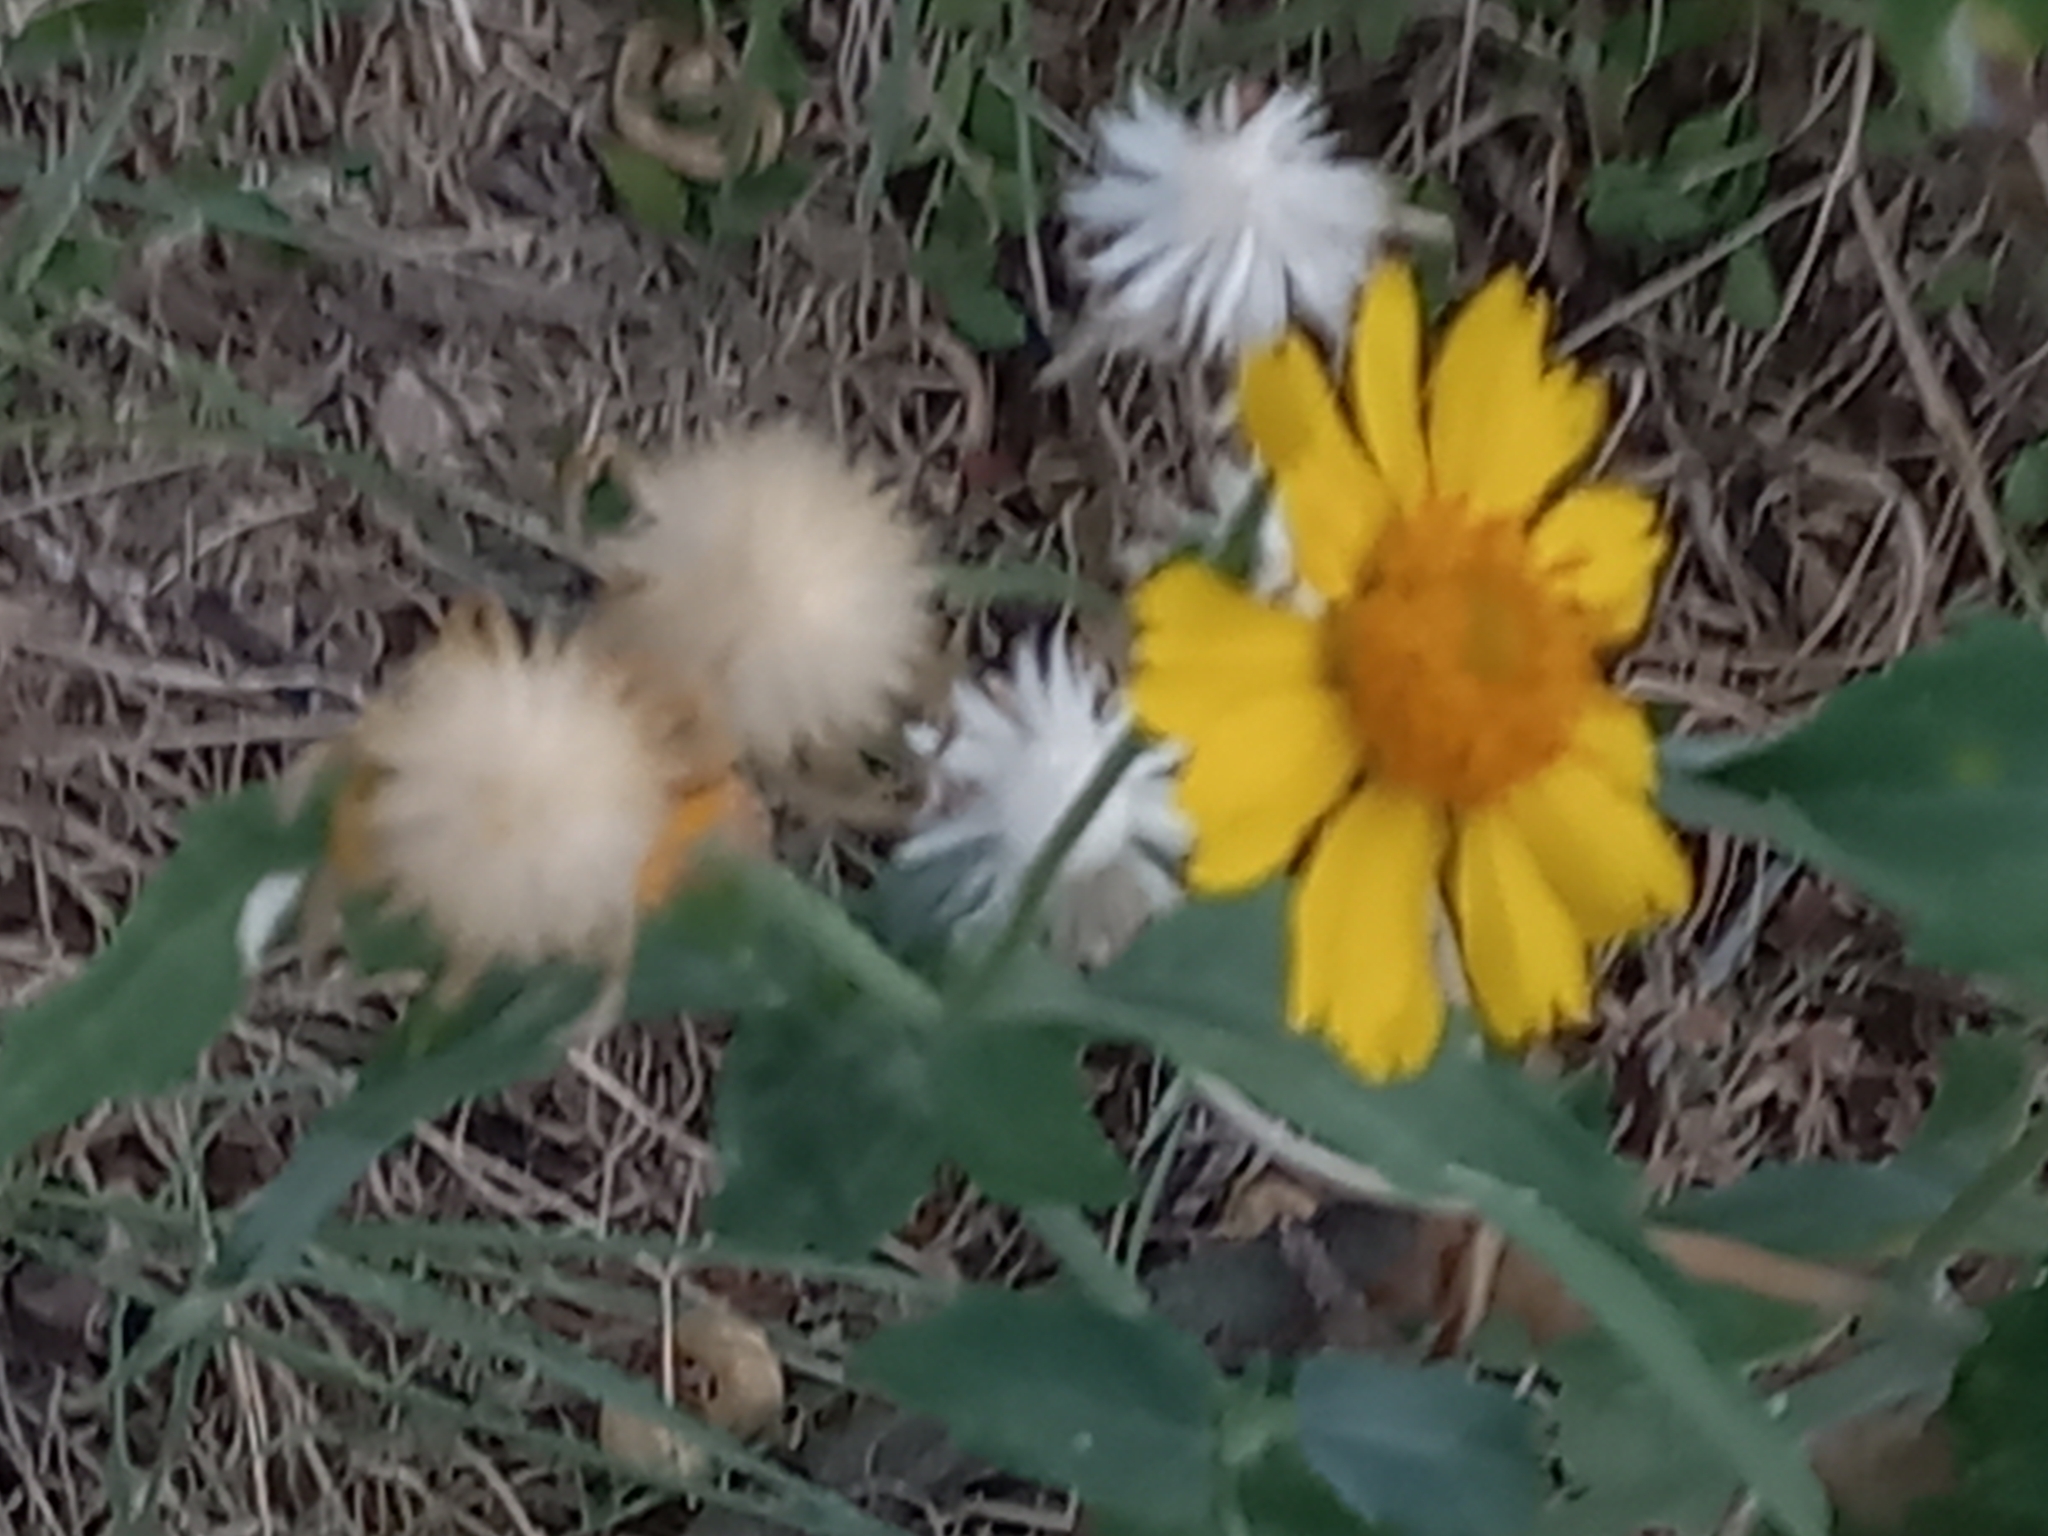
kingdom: Plantae
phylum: Tracheophyta
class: Magnoliopsida
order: Asterales
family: Asteraceae
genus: Verbesina
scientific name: Verbesina encelioides
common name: Golden crownbeard
